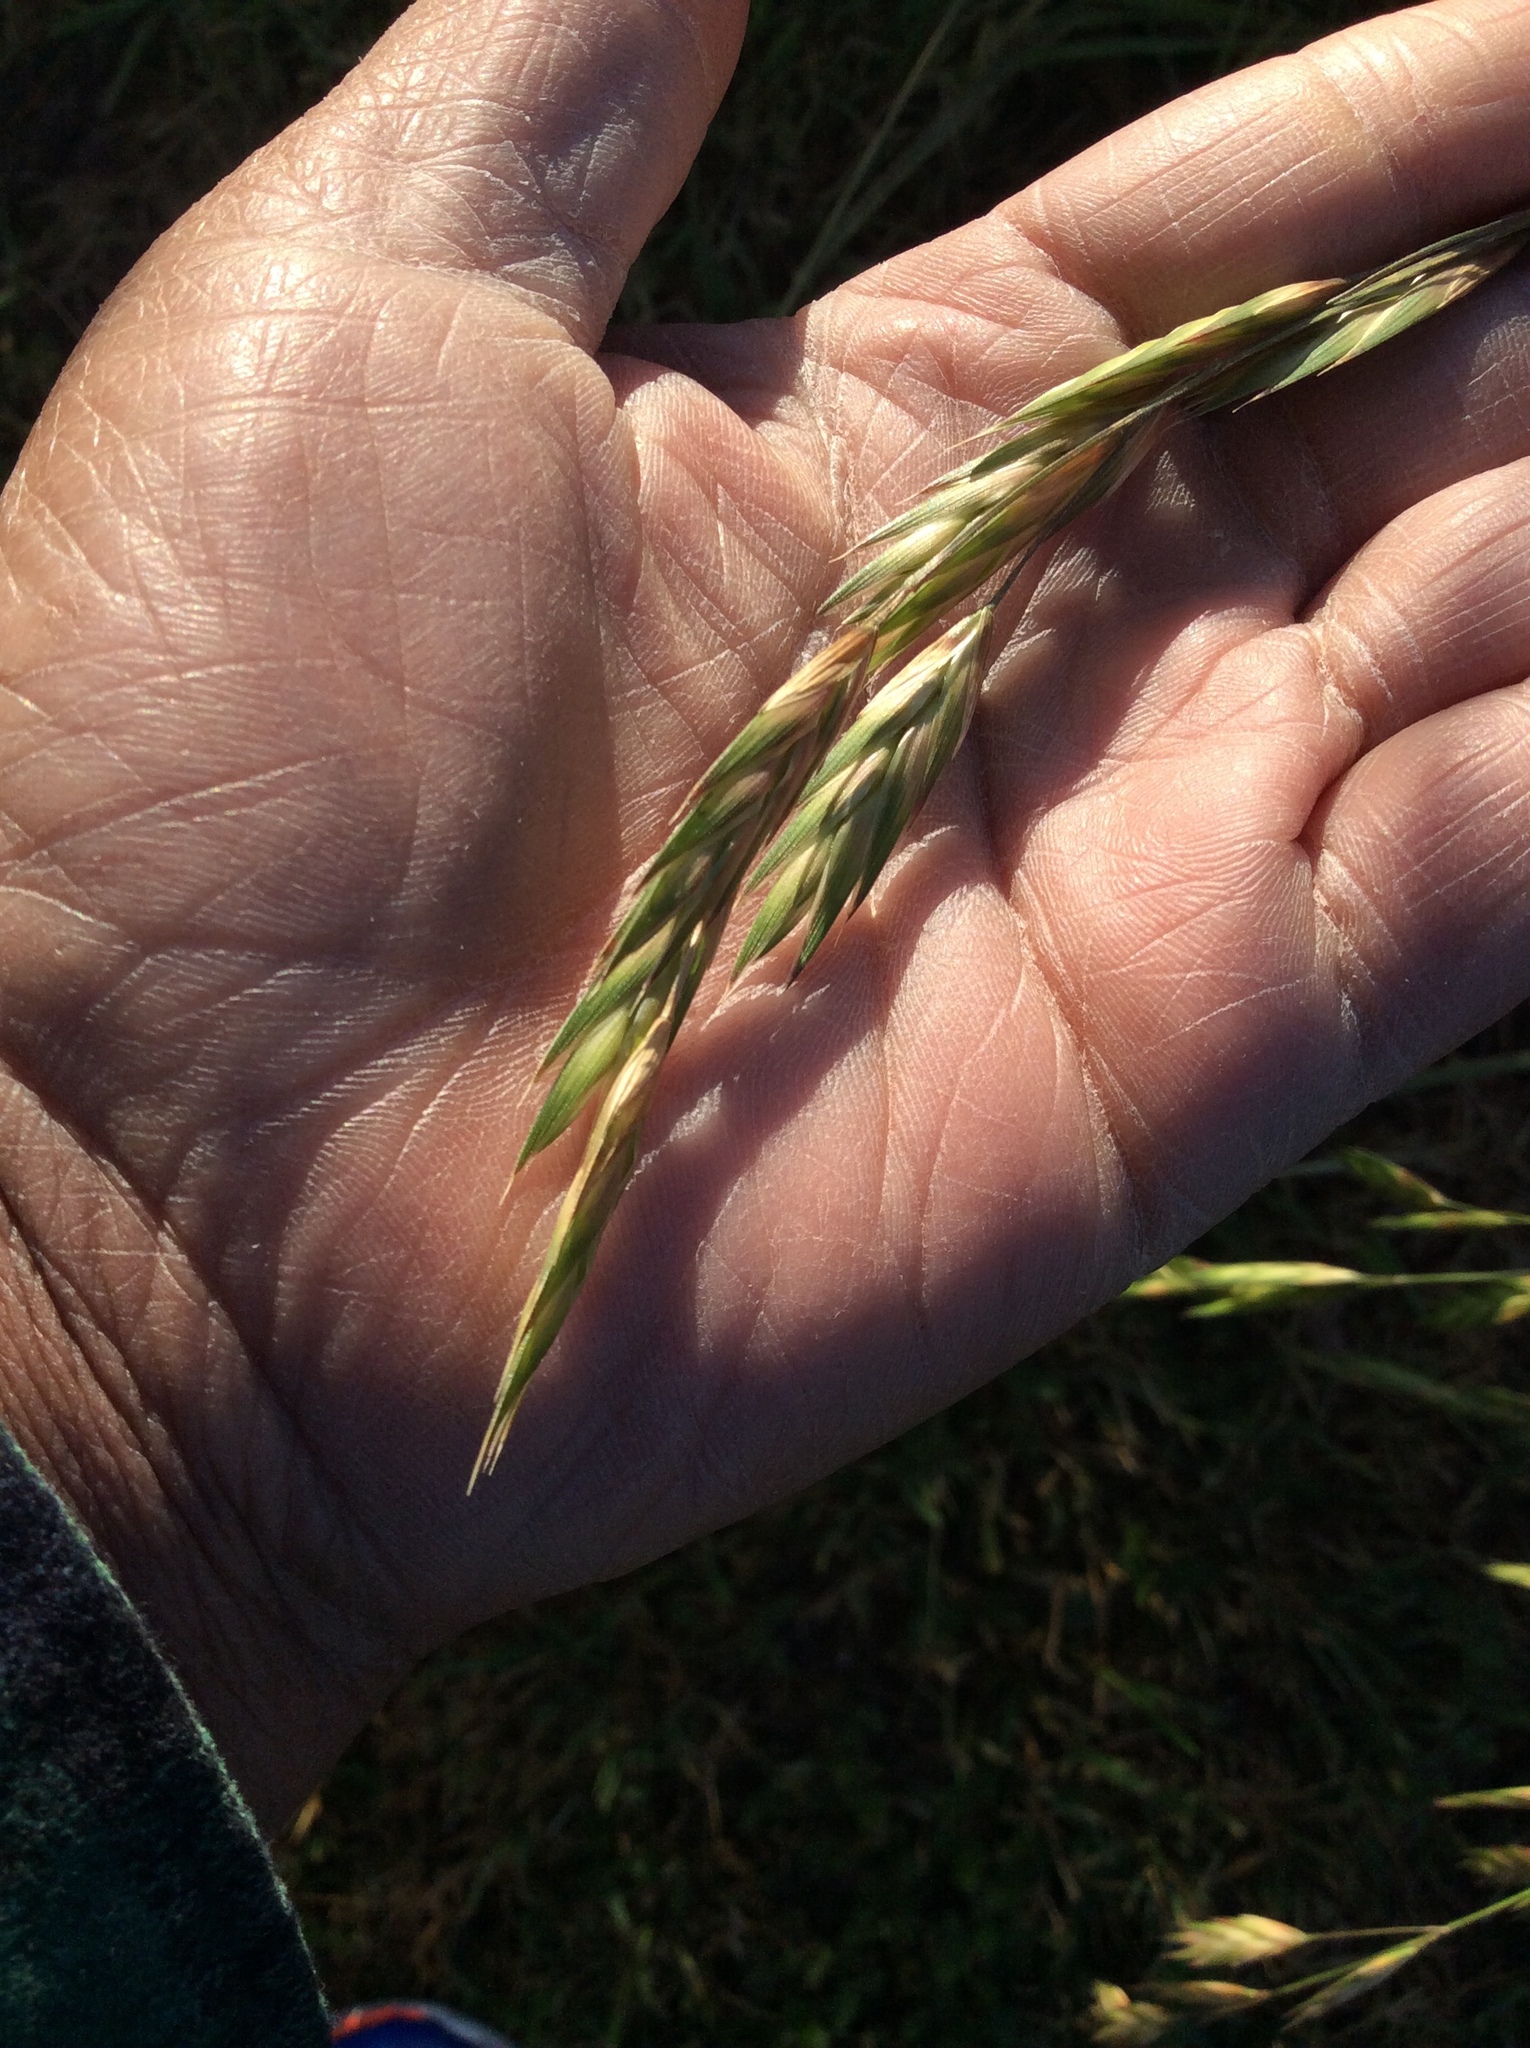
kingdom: Plantae
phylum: Tracheophyta
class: Liliopsida
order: Poales
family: Poaceae
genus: Bromus
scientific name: Bromus catharticus
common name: Rescuegrass
